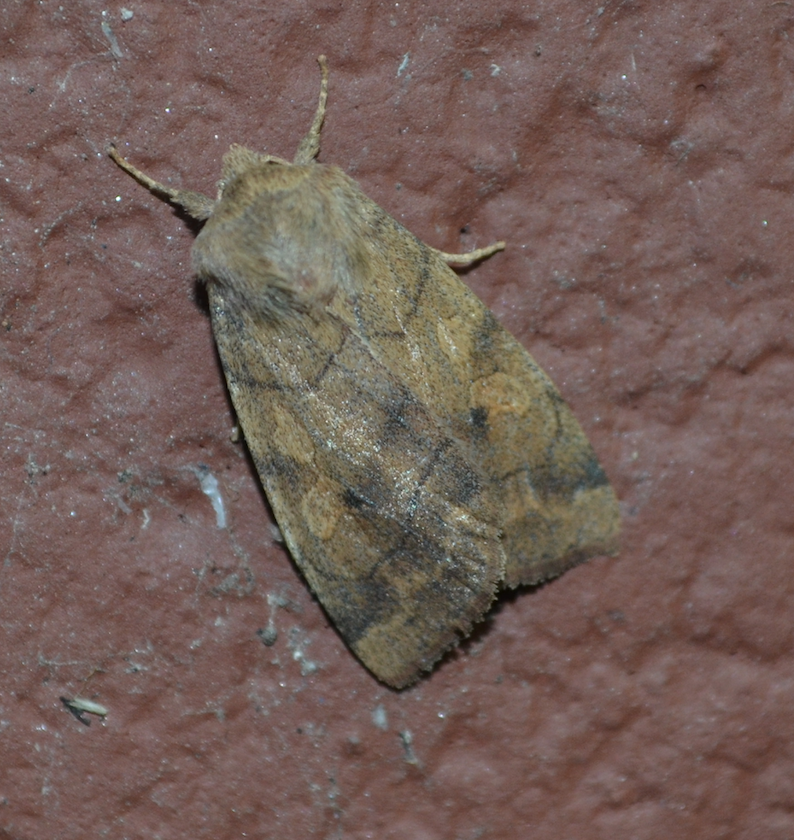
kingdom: Animalia
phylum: Arthropoda
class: Insecta
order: Lepidoptera
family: Noctuidae
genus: Enargia
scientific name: Enargia infumata
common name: Smoked sallow
